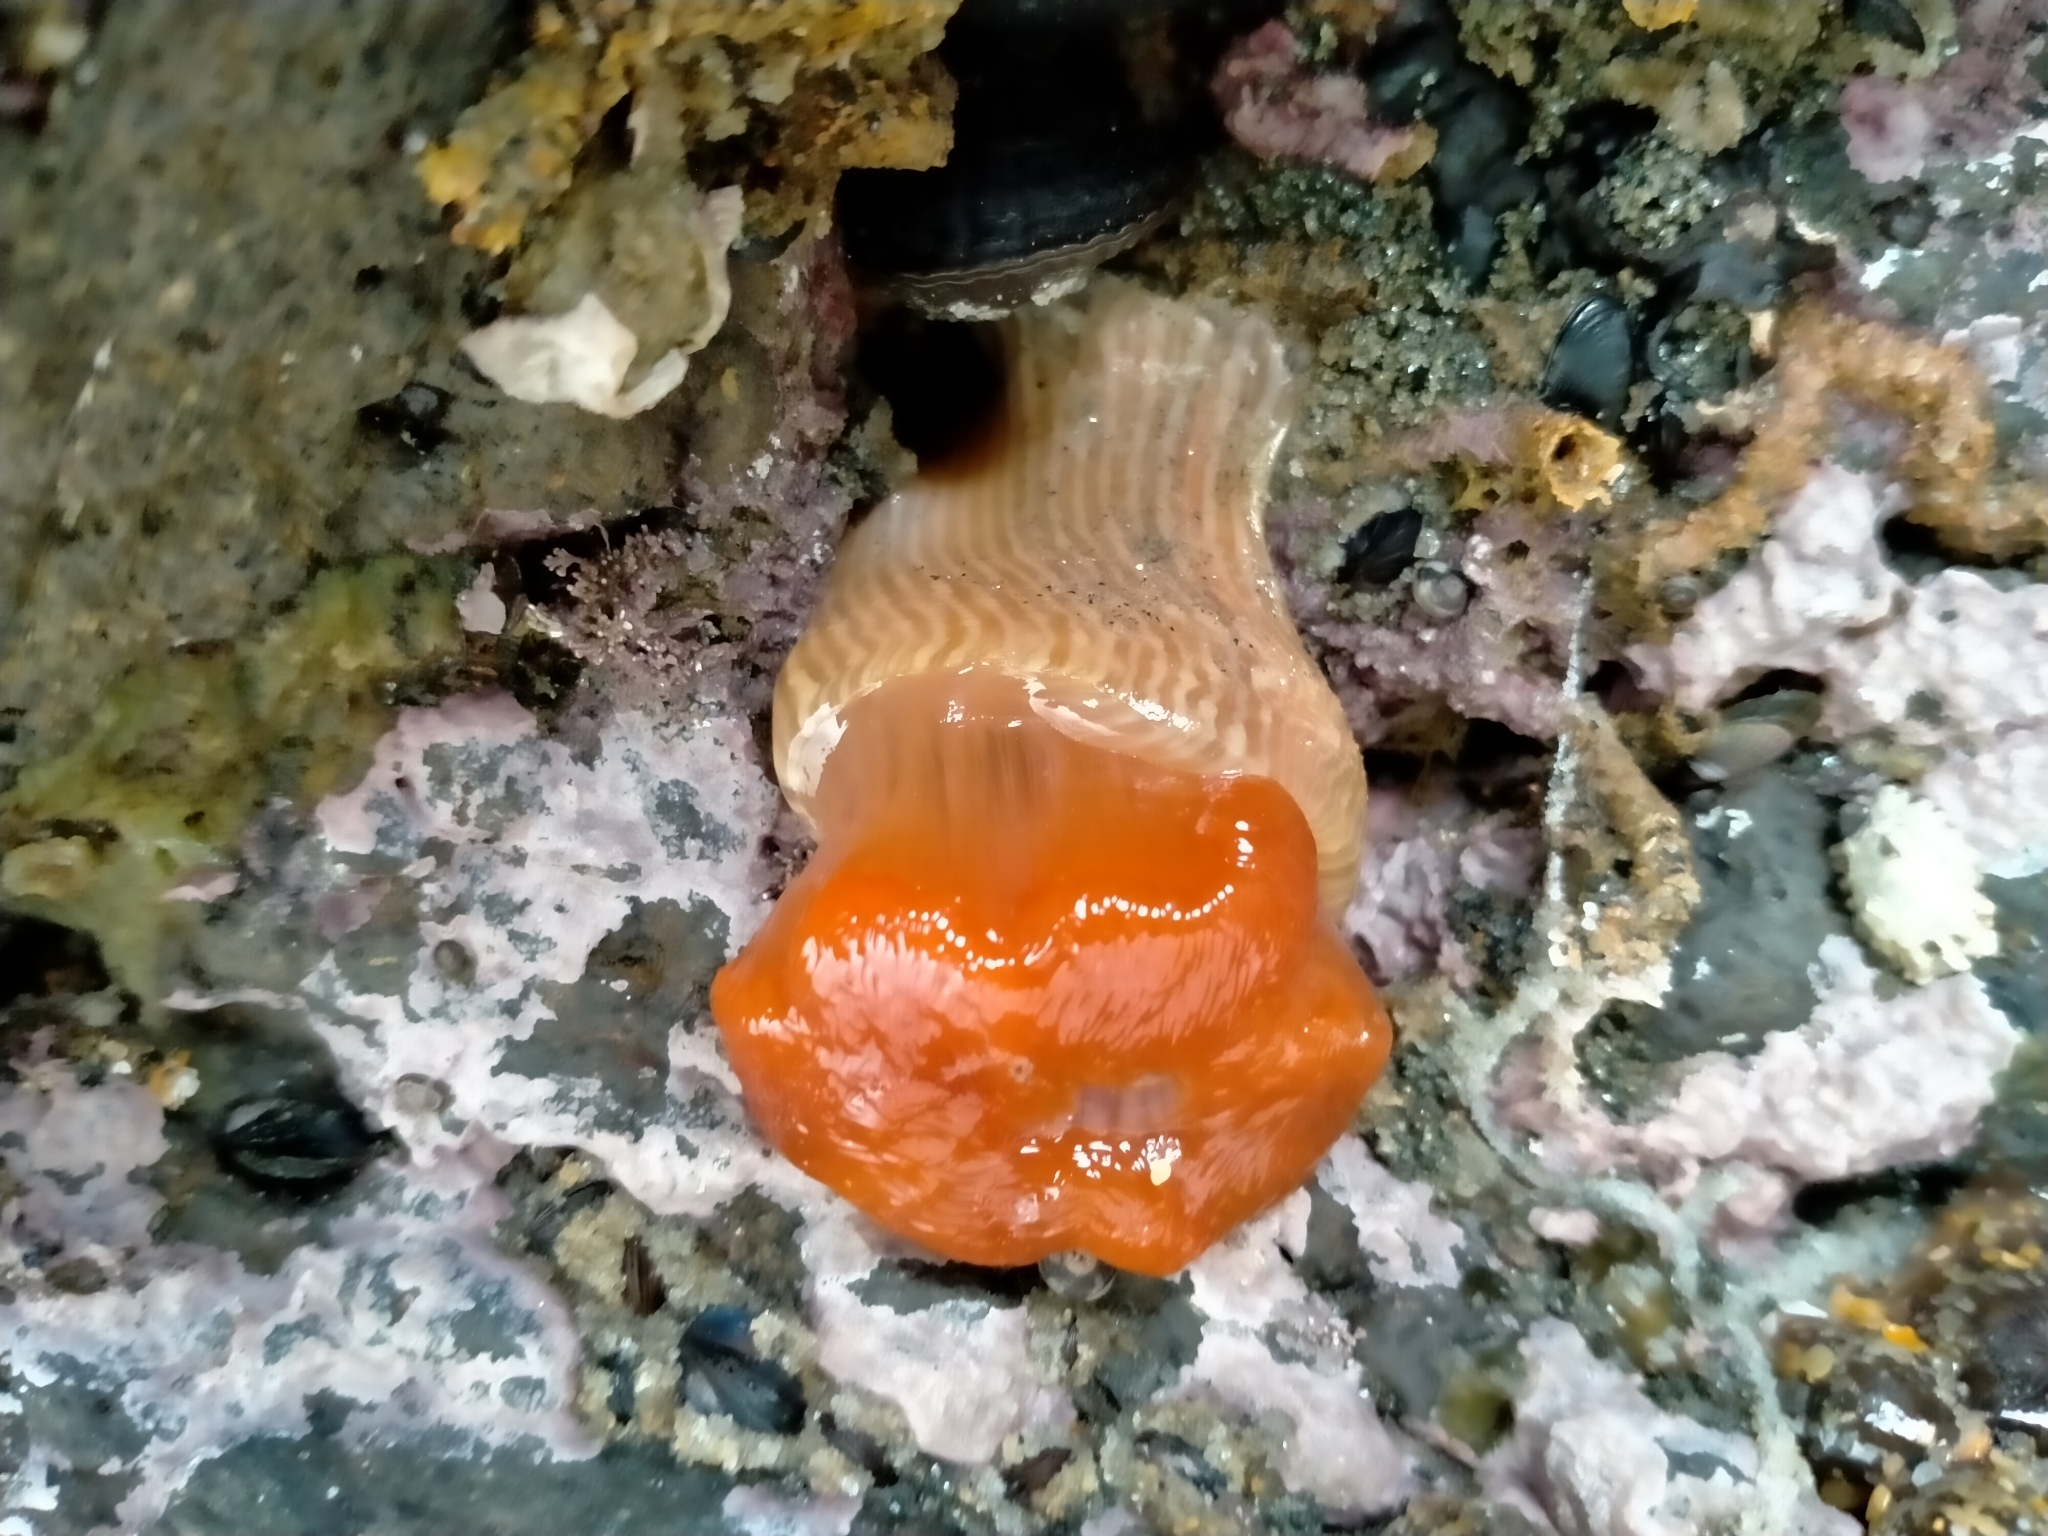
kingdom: Animalia
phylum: Cnidaria
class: Anthozoa
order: Actiniaria
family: Diadumenidae
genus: Diadumene
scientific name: Diadumene neozelanica
